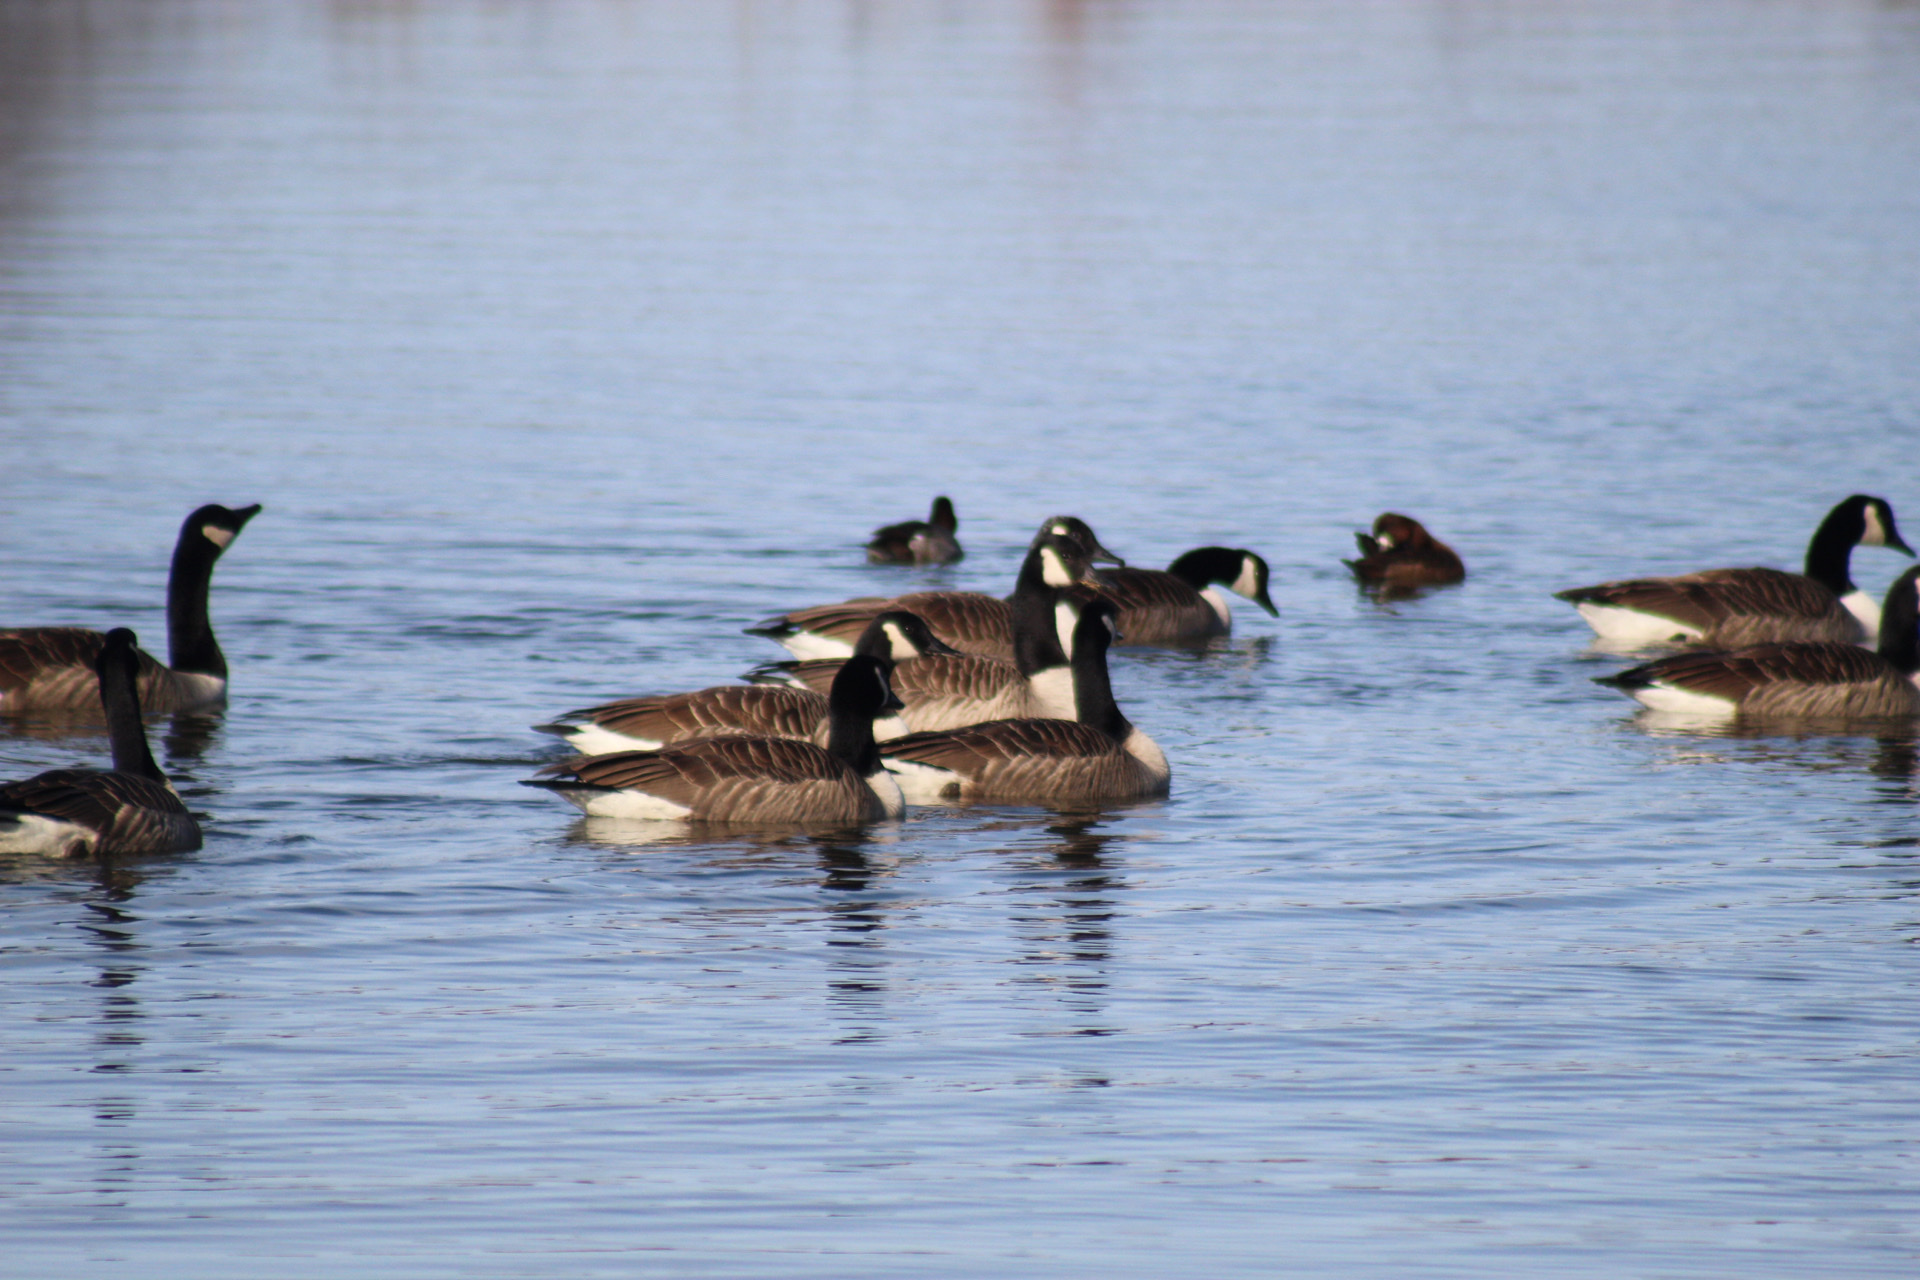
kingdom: Animalia
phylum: Chordata
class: Aves
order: Anseriformes
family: Anatidae
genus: Branta
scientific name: Branta canadensis
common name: Canada goose
